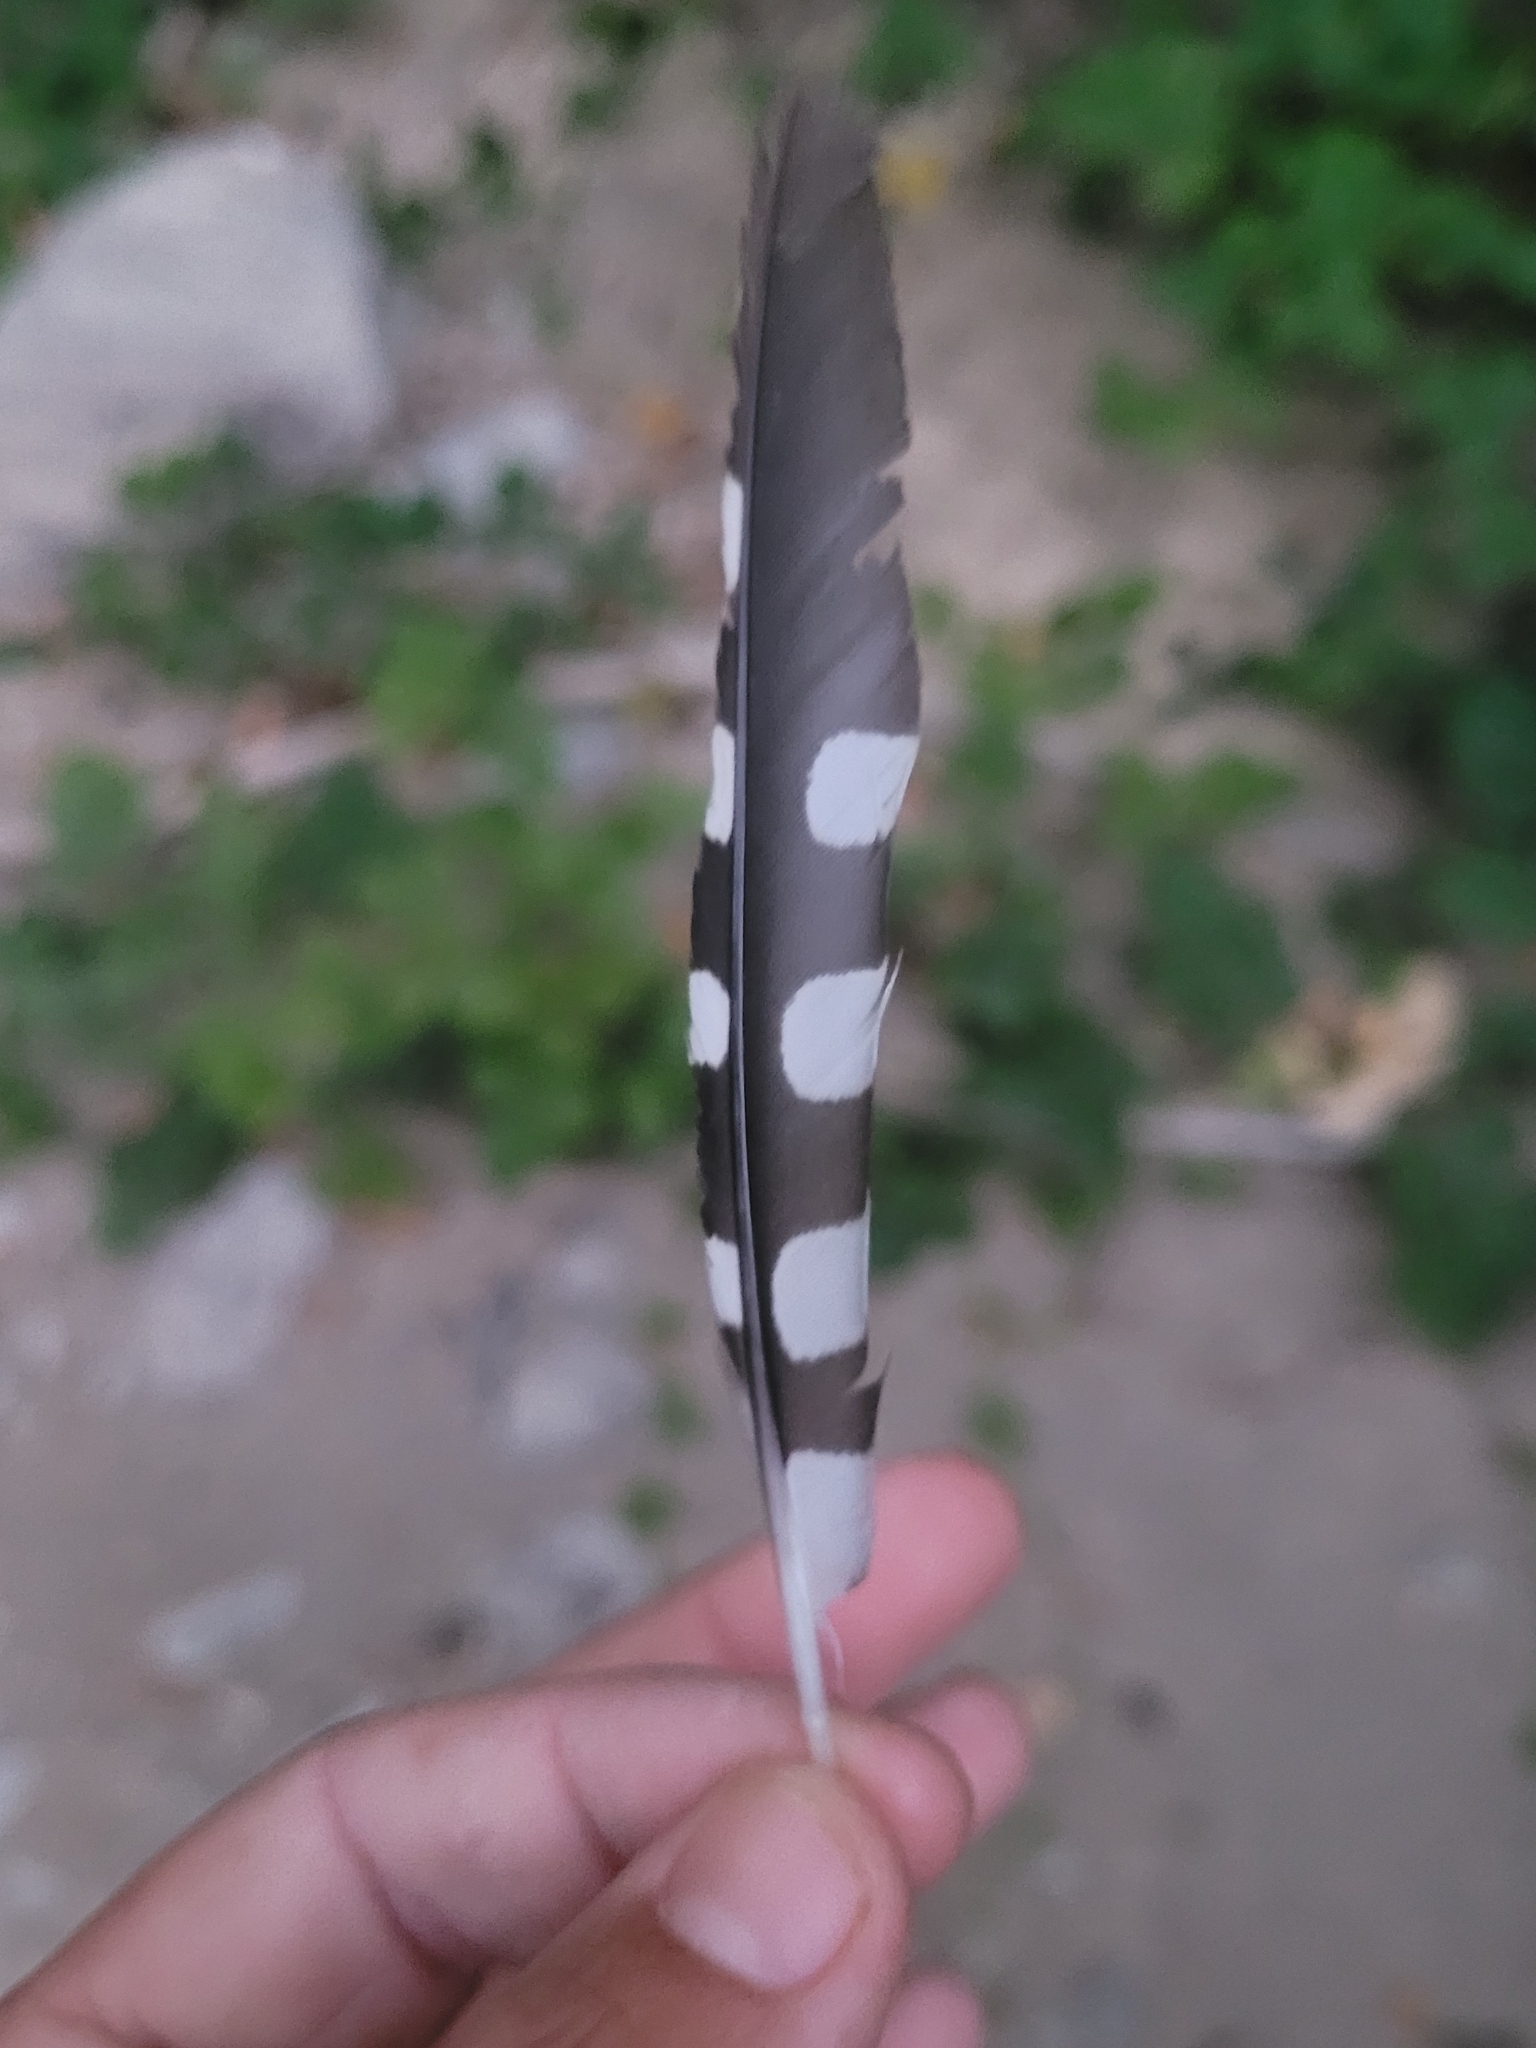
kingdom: Animalia
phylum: Chordata
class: Aves
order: Piciformes
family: Picidae
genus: Dendrocopos
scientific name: Dendrocopos major
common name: Great spotted woodpecker
